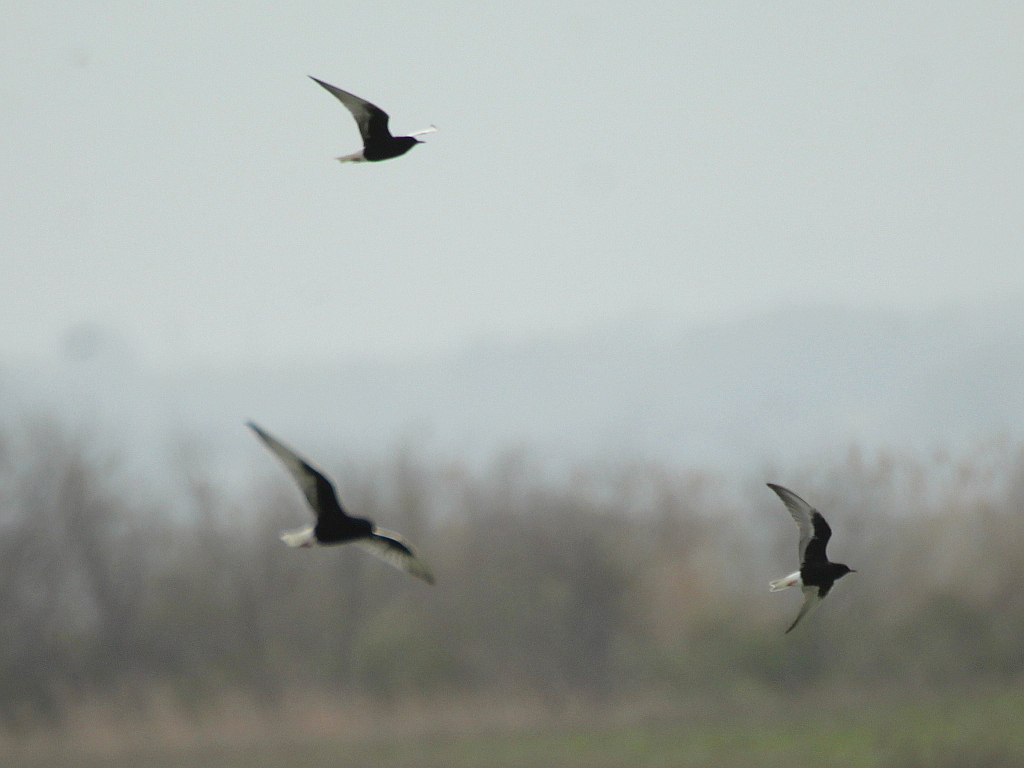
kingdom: Animalia
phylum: Chordata
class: Aves
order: Charadriiformes
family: Laridae
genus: Chlidonias
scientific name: Chlidonias leucopterus
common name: White-winged tern
